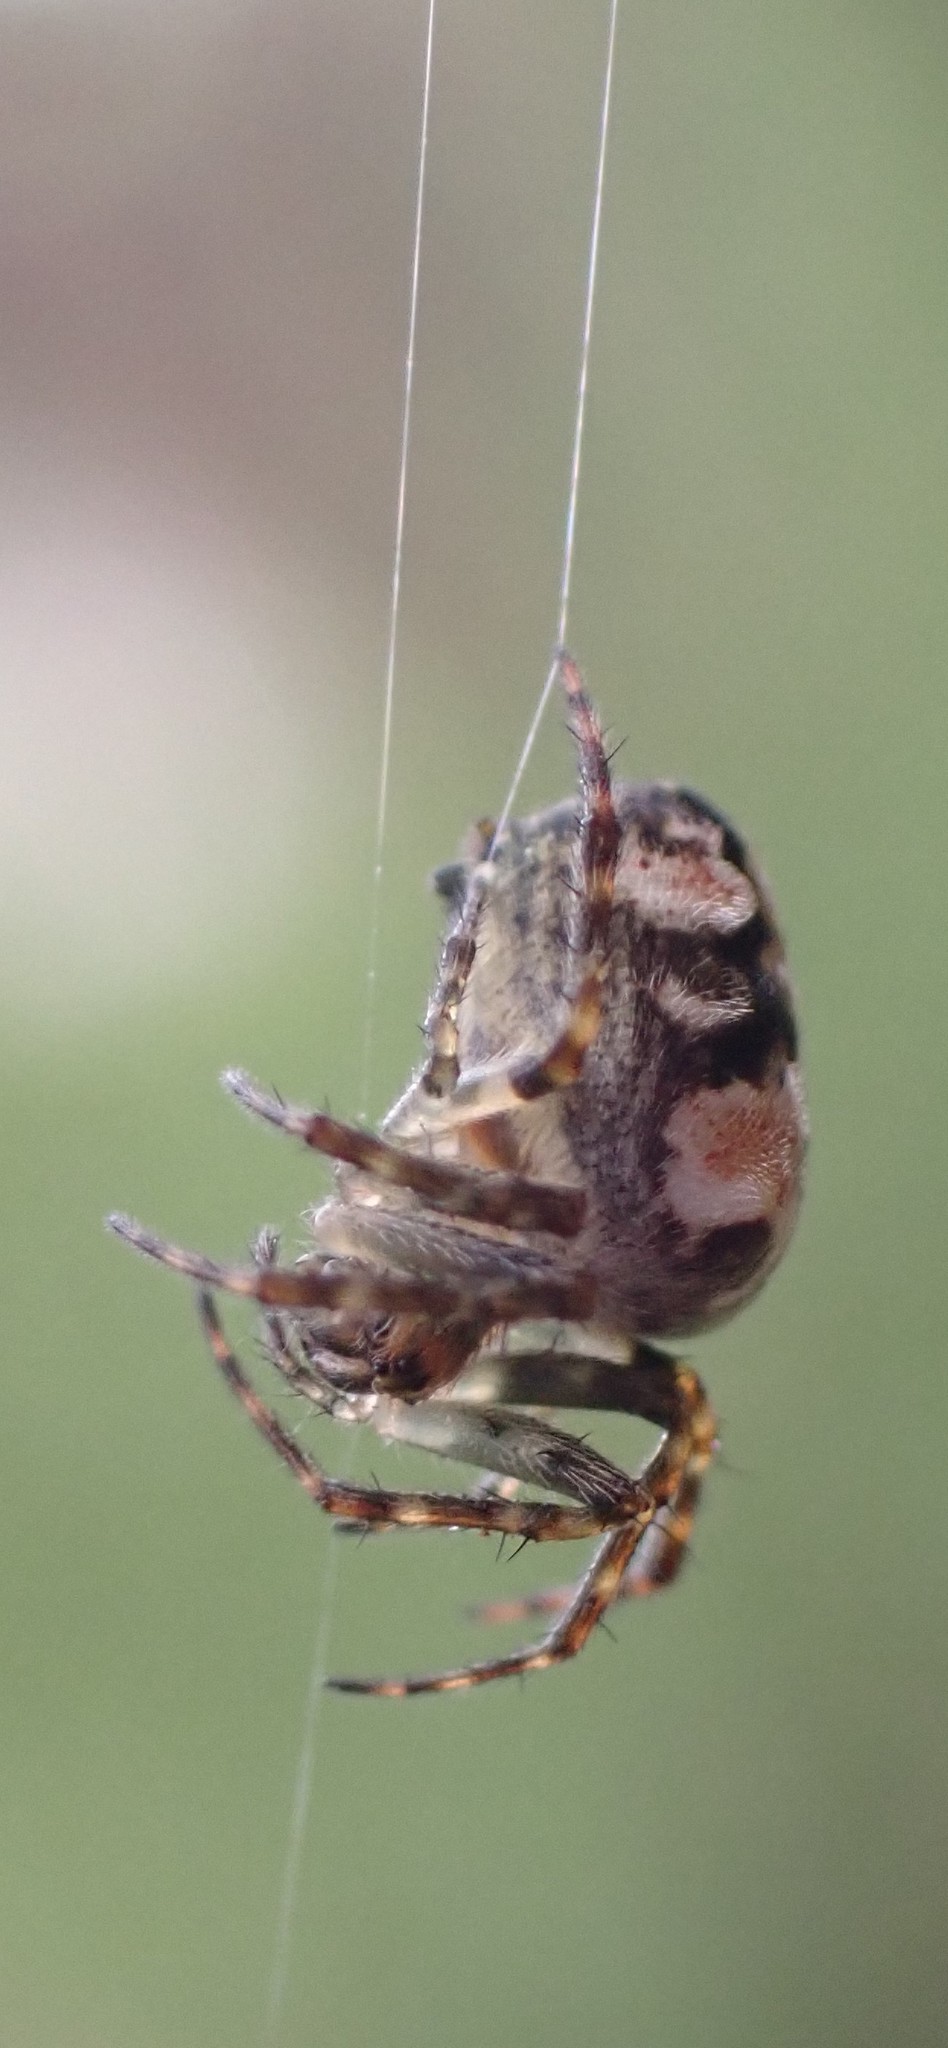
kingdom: Animalia
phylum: Arthropoda
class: Arachnida
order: Araneae
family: Araneidae
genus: Plebs
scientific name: Plebs eburnus
